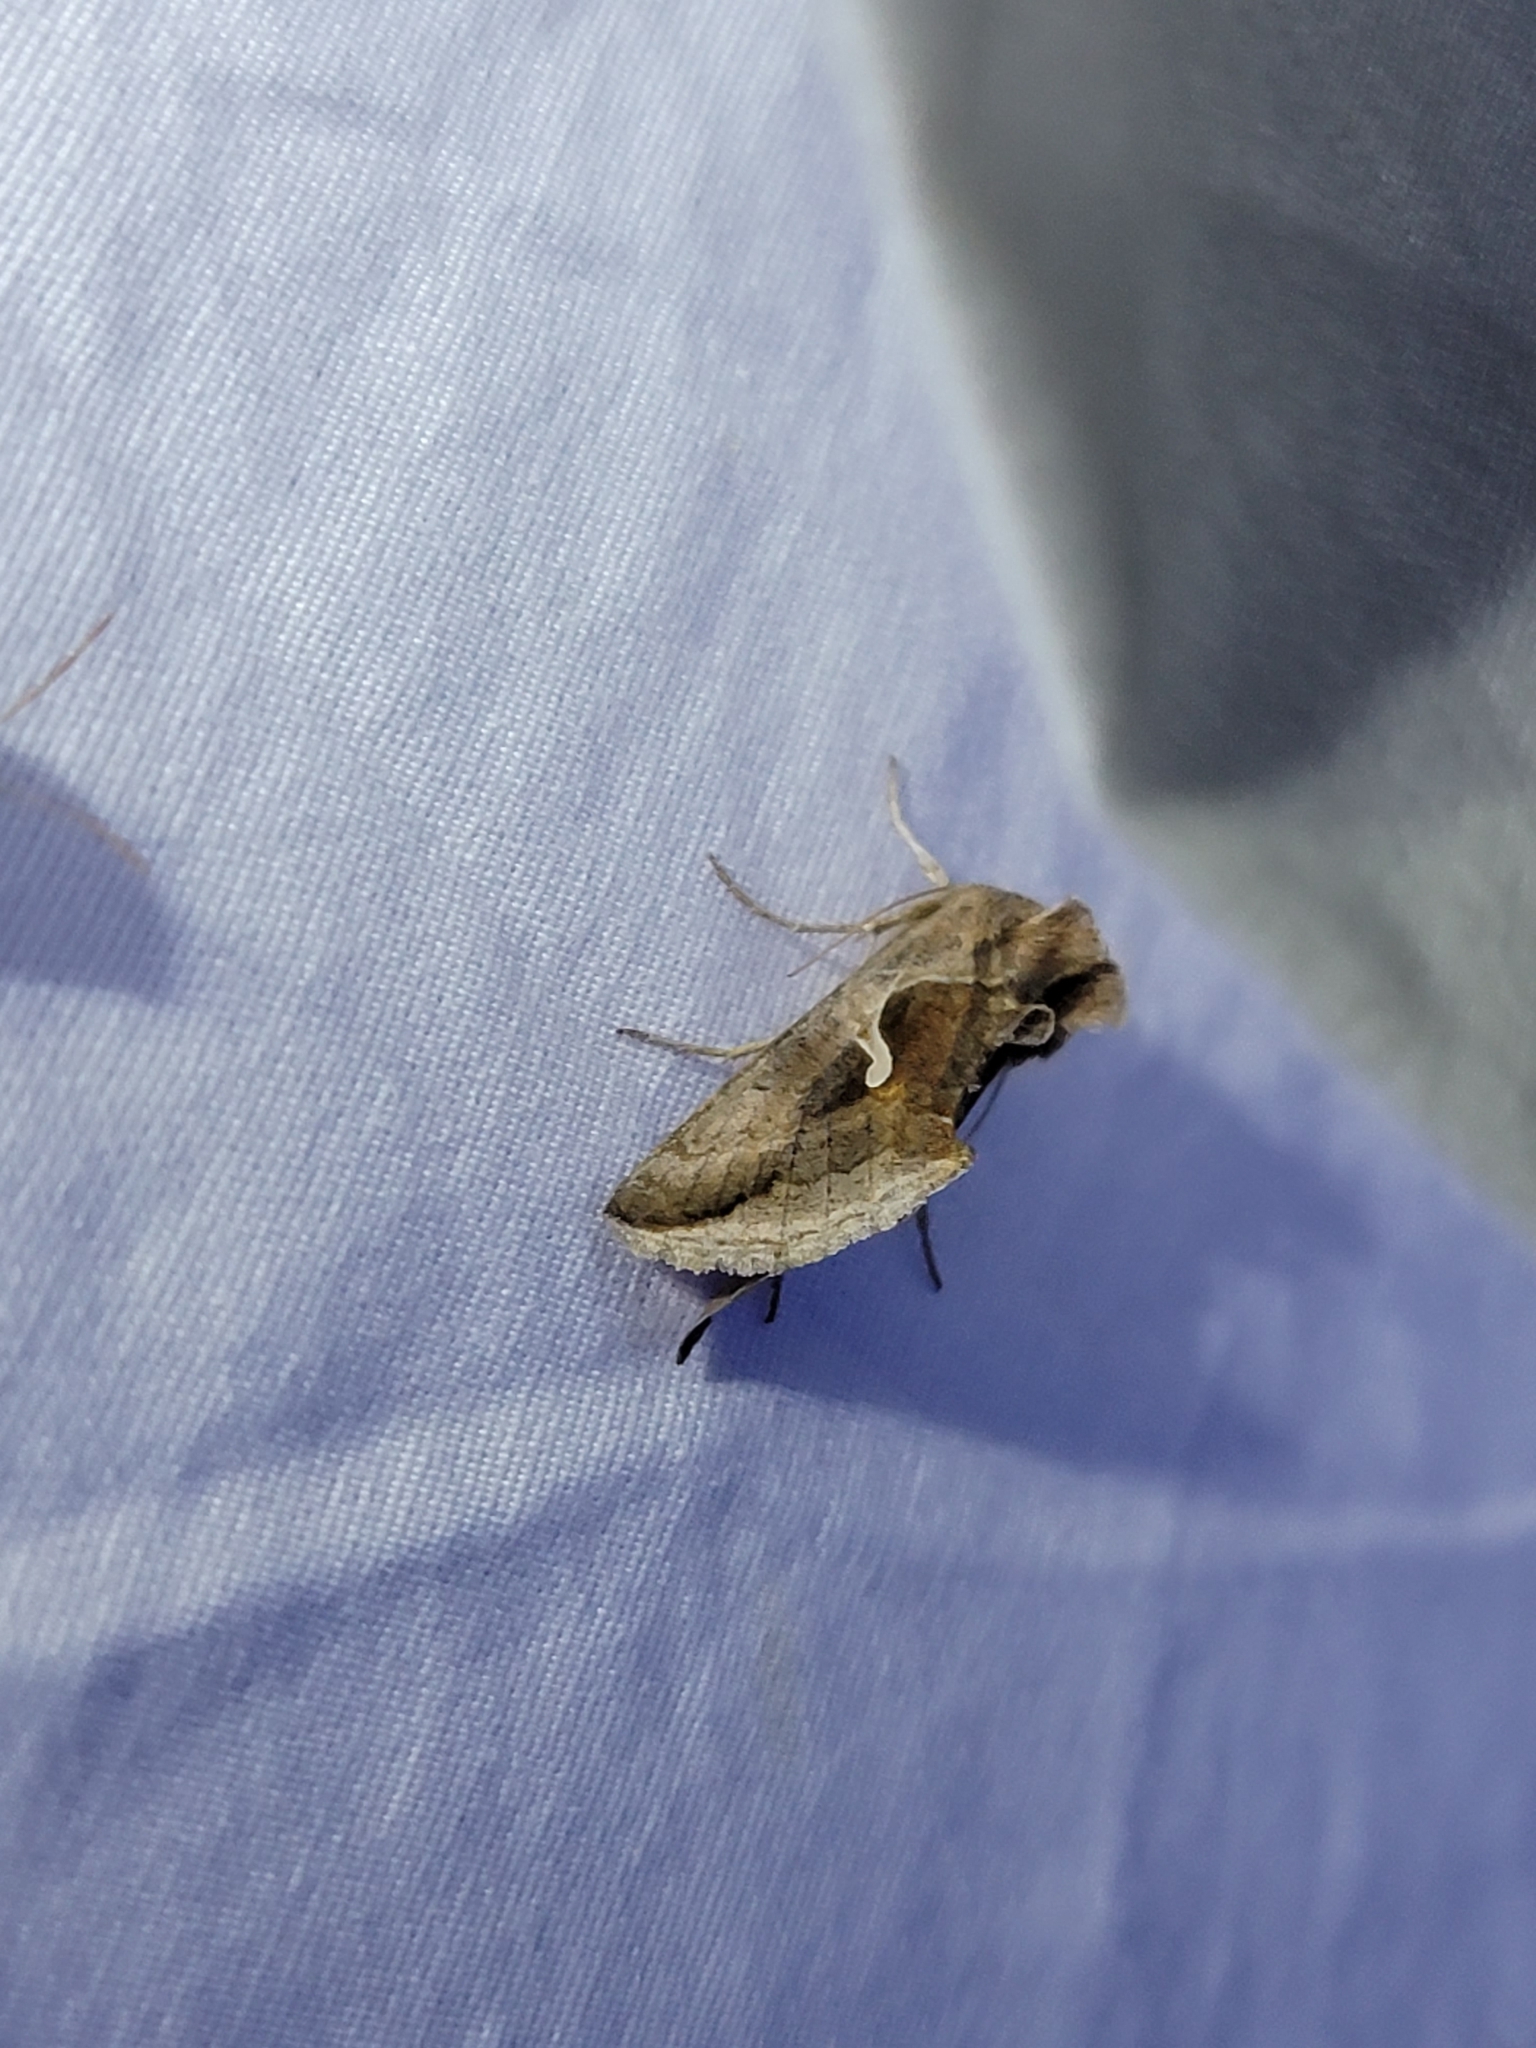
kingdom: Animalia
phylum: Arthropoda
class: Insecta
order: Lepidoptera
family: Noctuidae
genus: Anagrapha
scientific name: Anagrapha falcifera
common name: Celery looper
